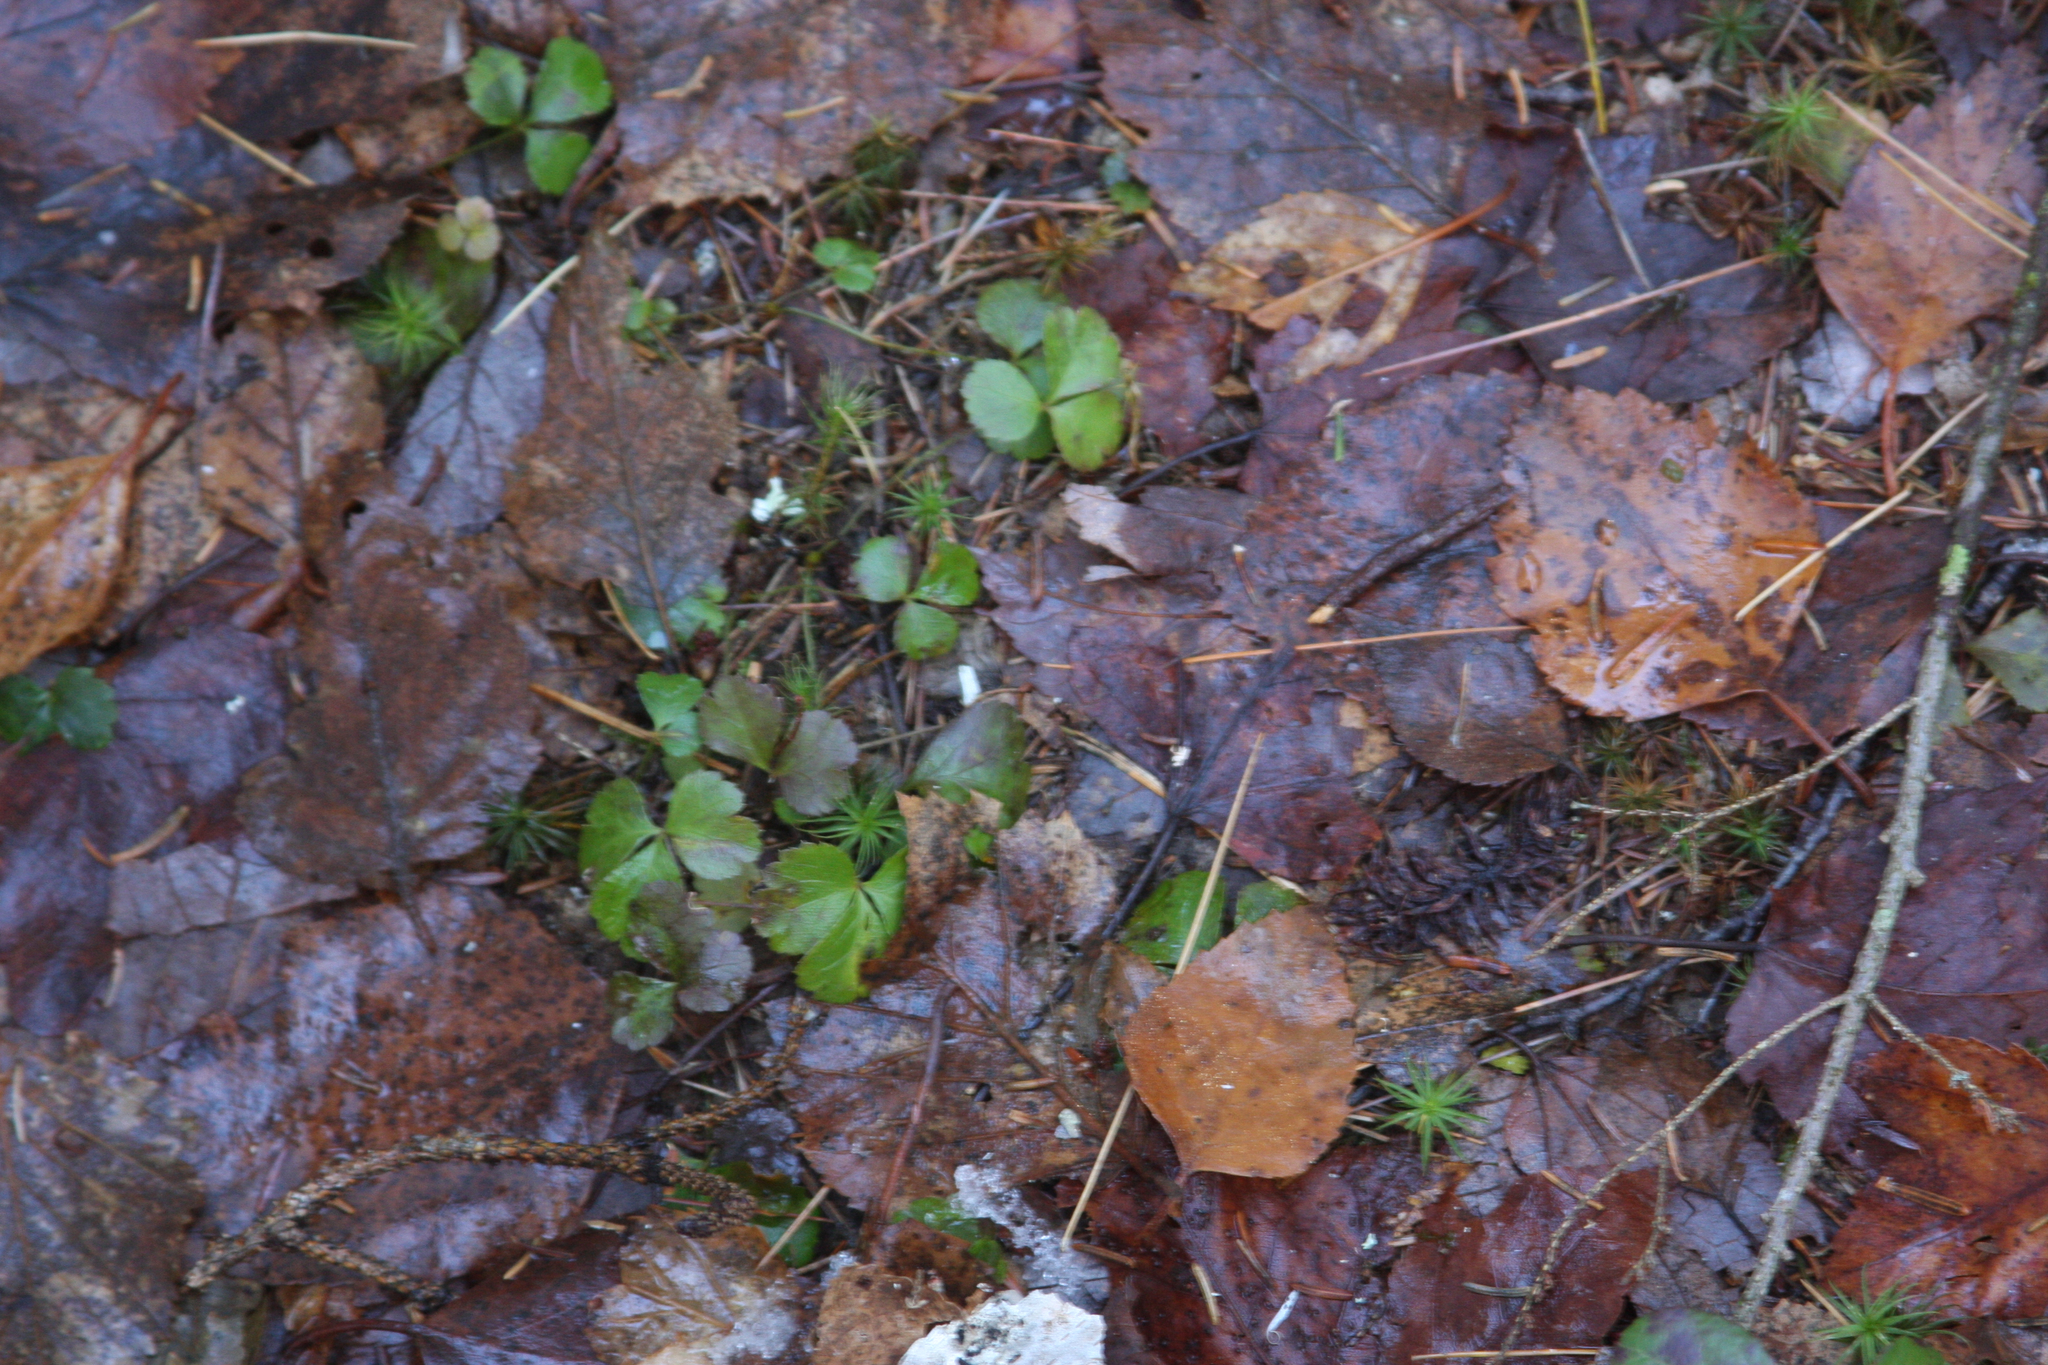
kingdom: Plantae
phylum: Tracheophyta
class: Magnoliopsida
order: Ranunculales
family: Ranunculaceae
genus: Coptis
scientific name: Coptis trifolia
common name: Canker-root
